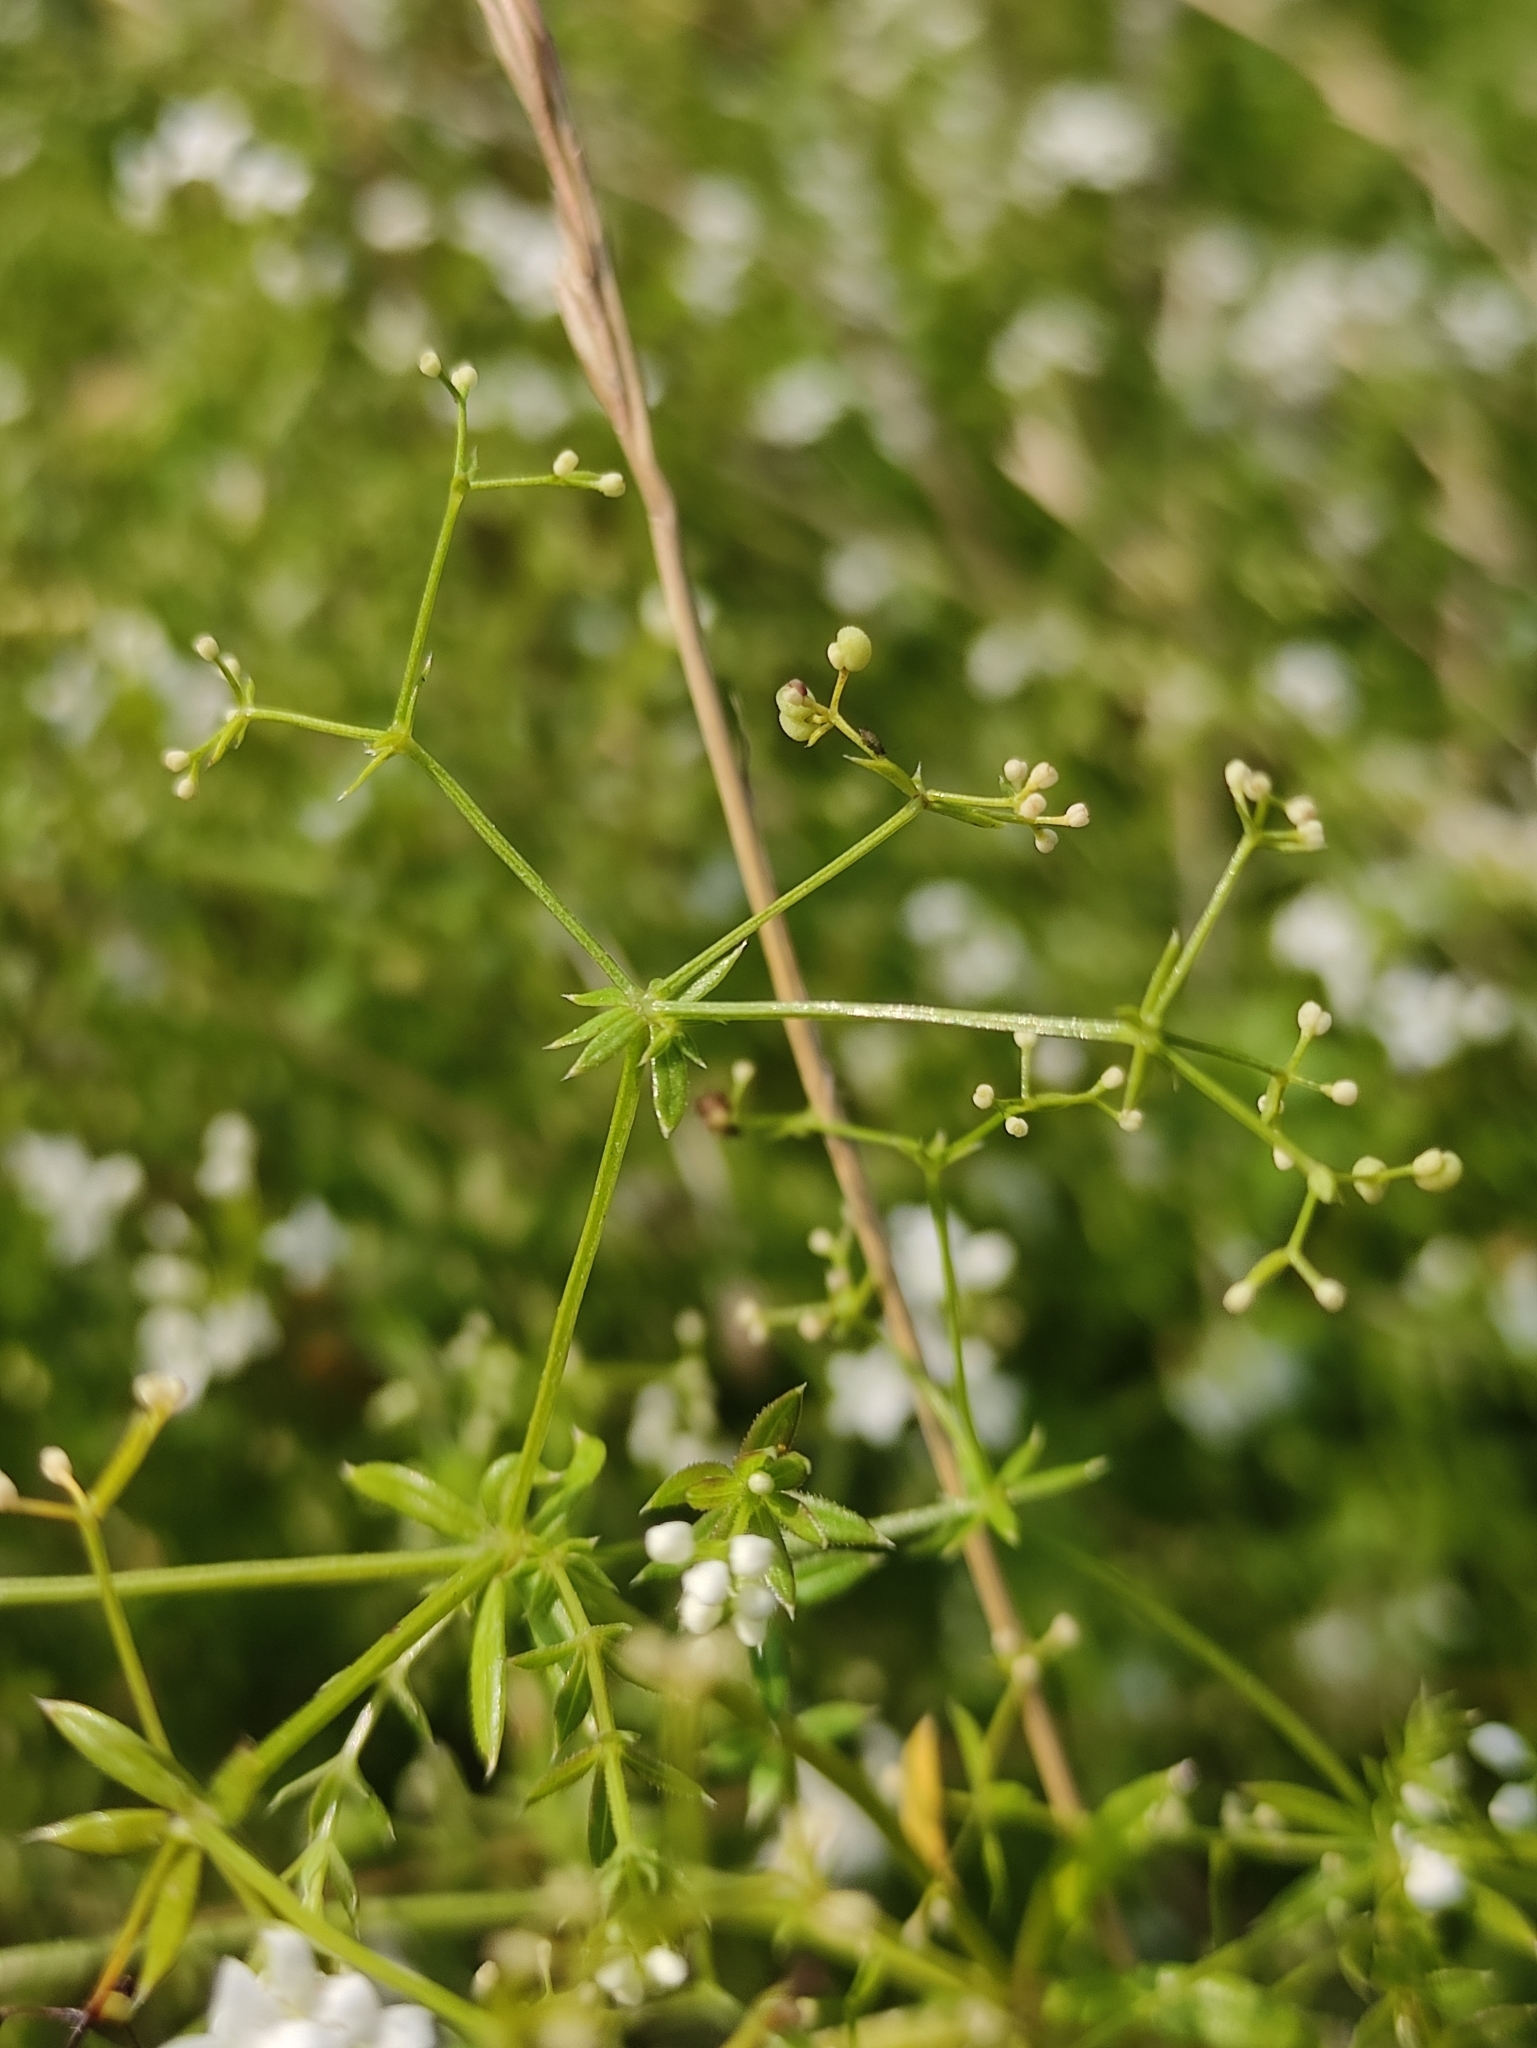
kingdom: Plantae
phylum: Tracheophyta
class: Magnoliopsida
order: Gentianales
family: Rubiaceae
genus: Galium
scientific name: Galium uliginosum
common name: Fen bedstraw
